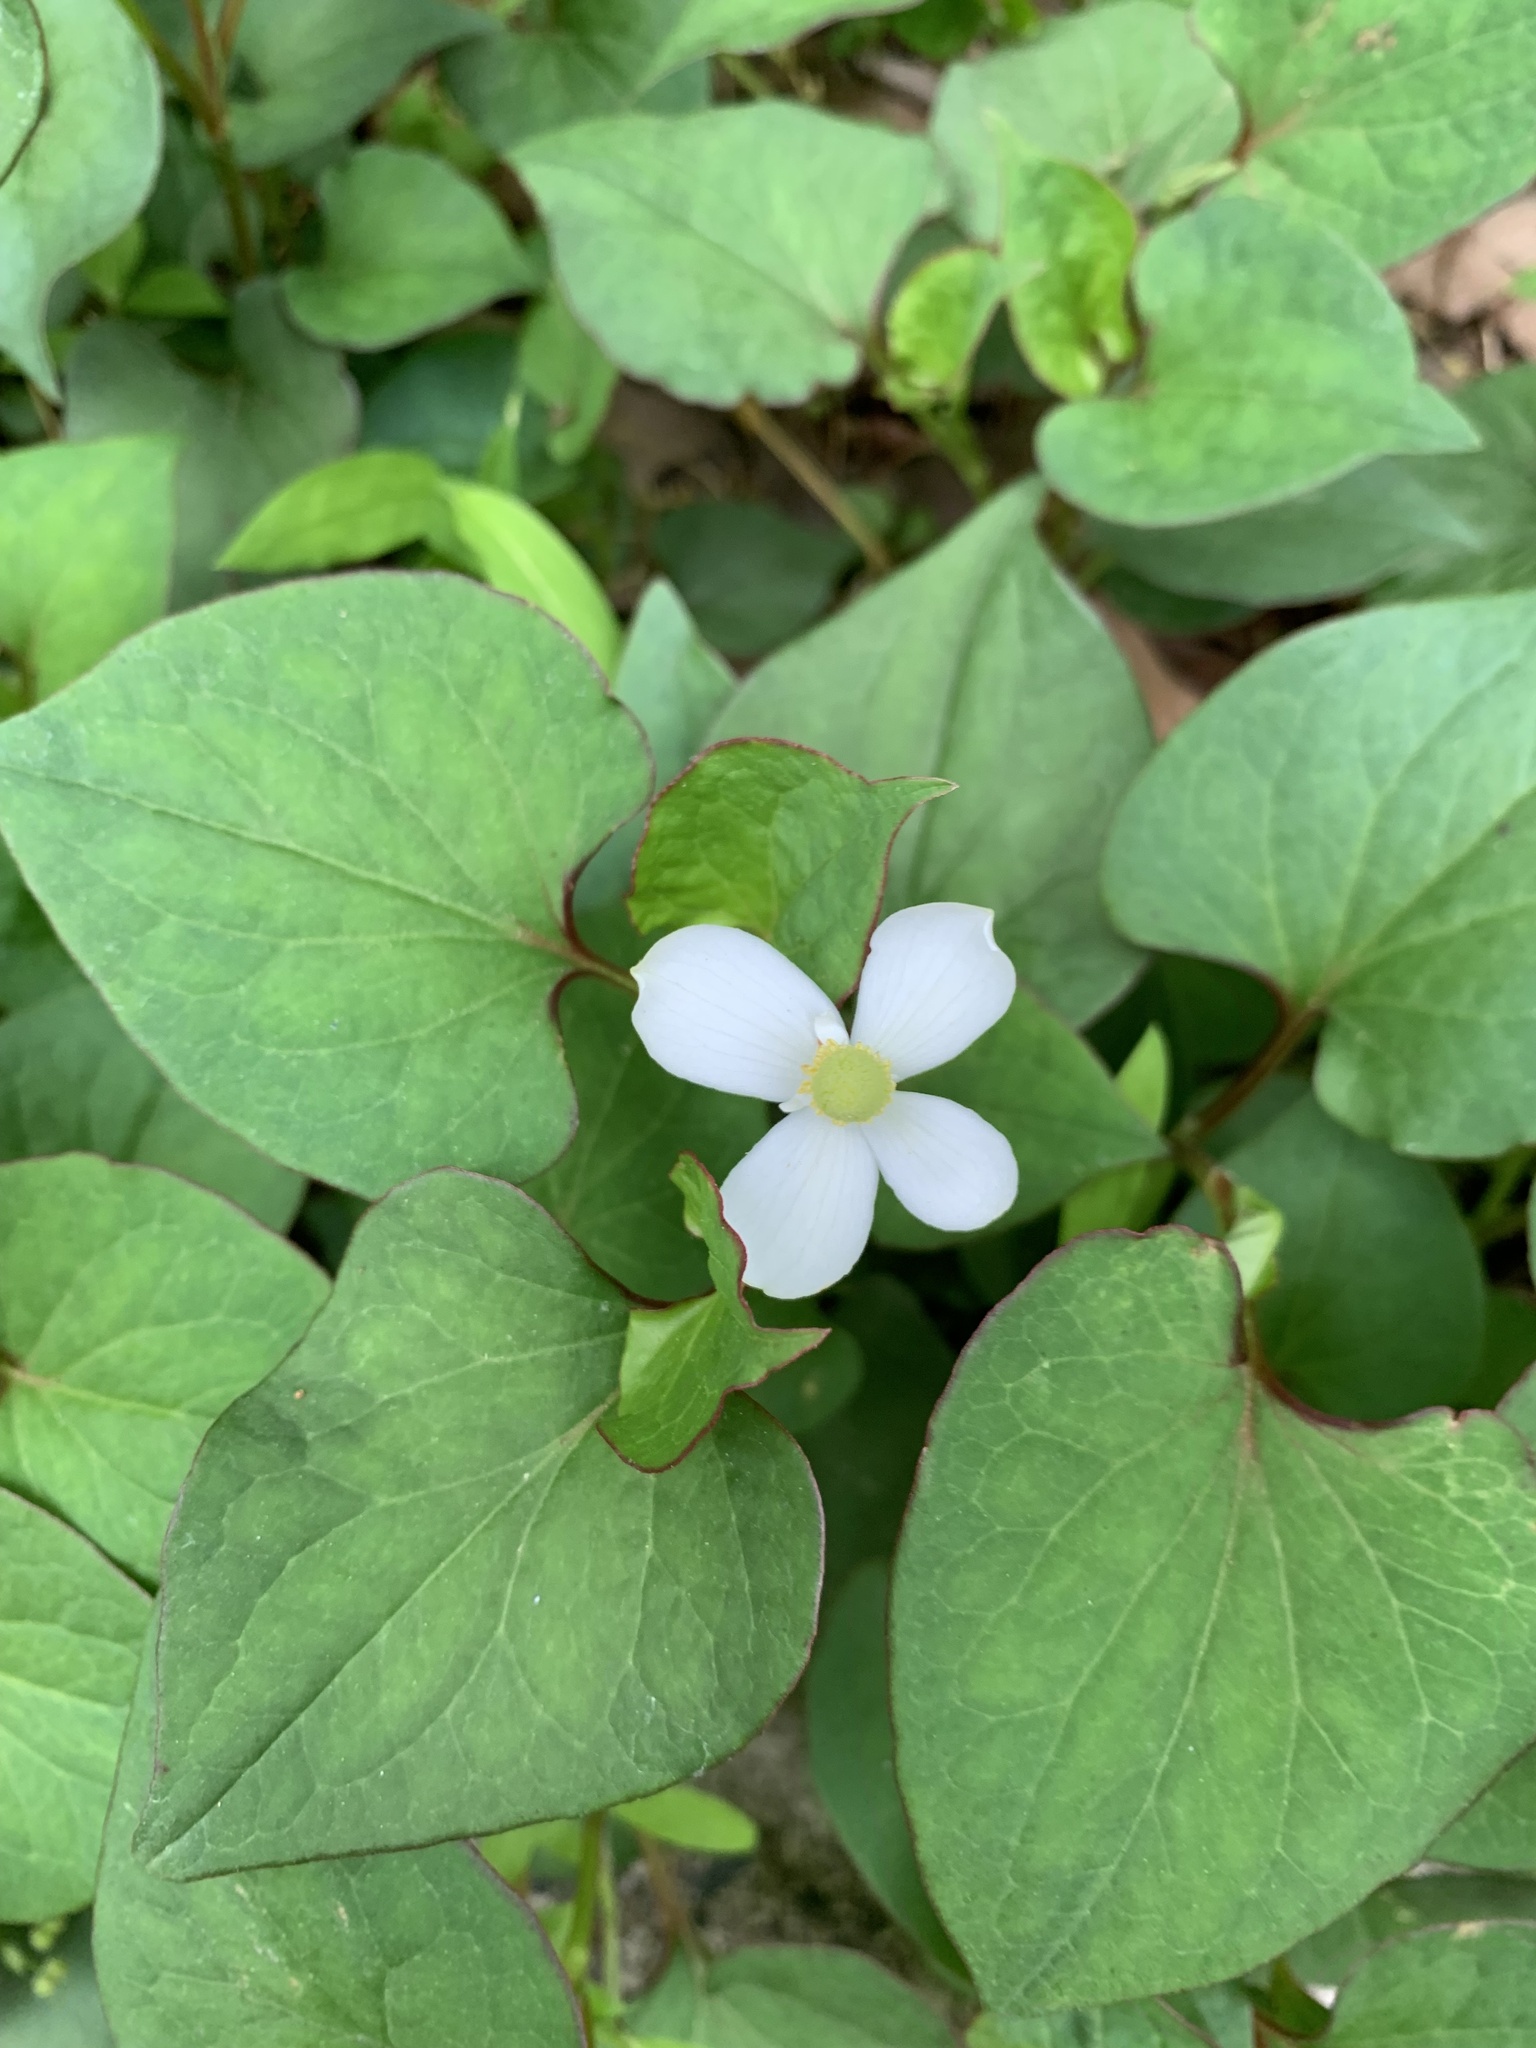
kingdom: Plantae
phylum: Tracheophyta
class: Magnoliopsida
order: Piperales
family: Saururaceae
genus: Houttuynia
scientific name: Houttuynia cordata
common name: Chameleon
